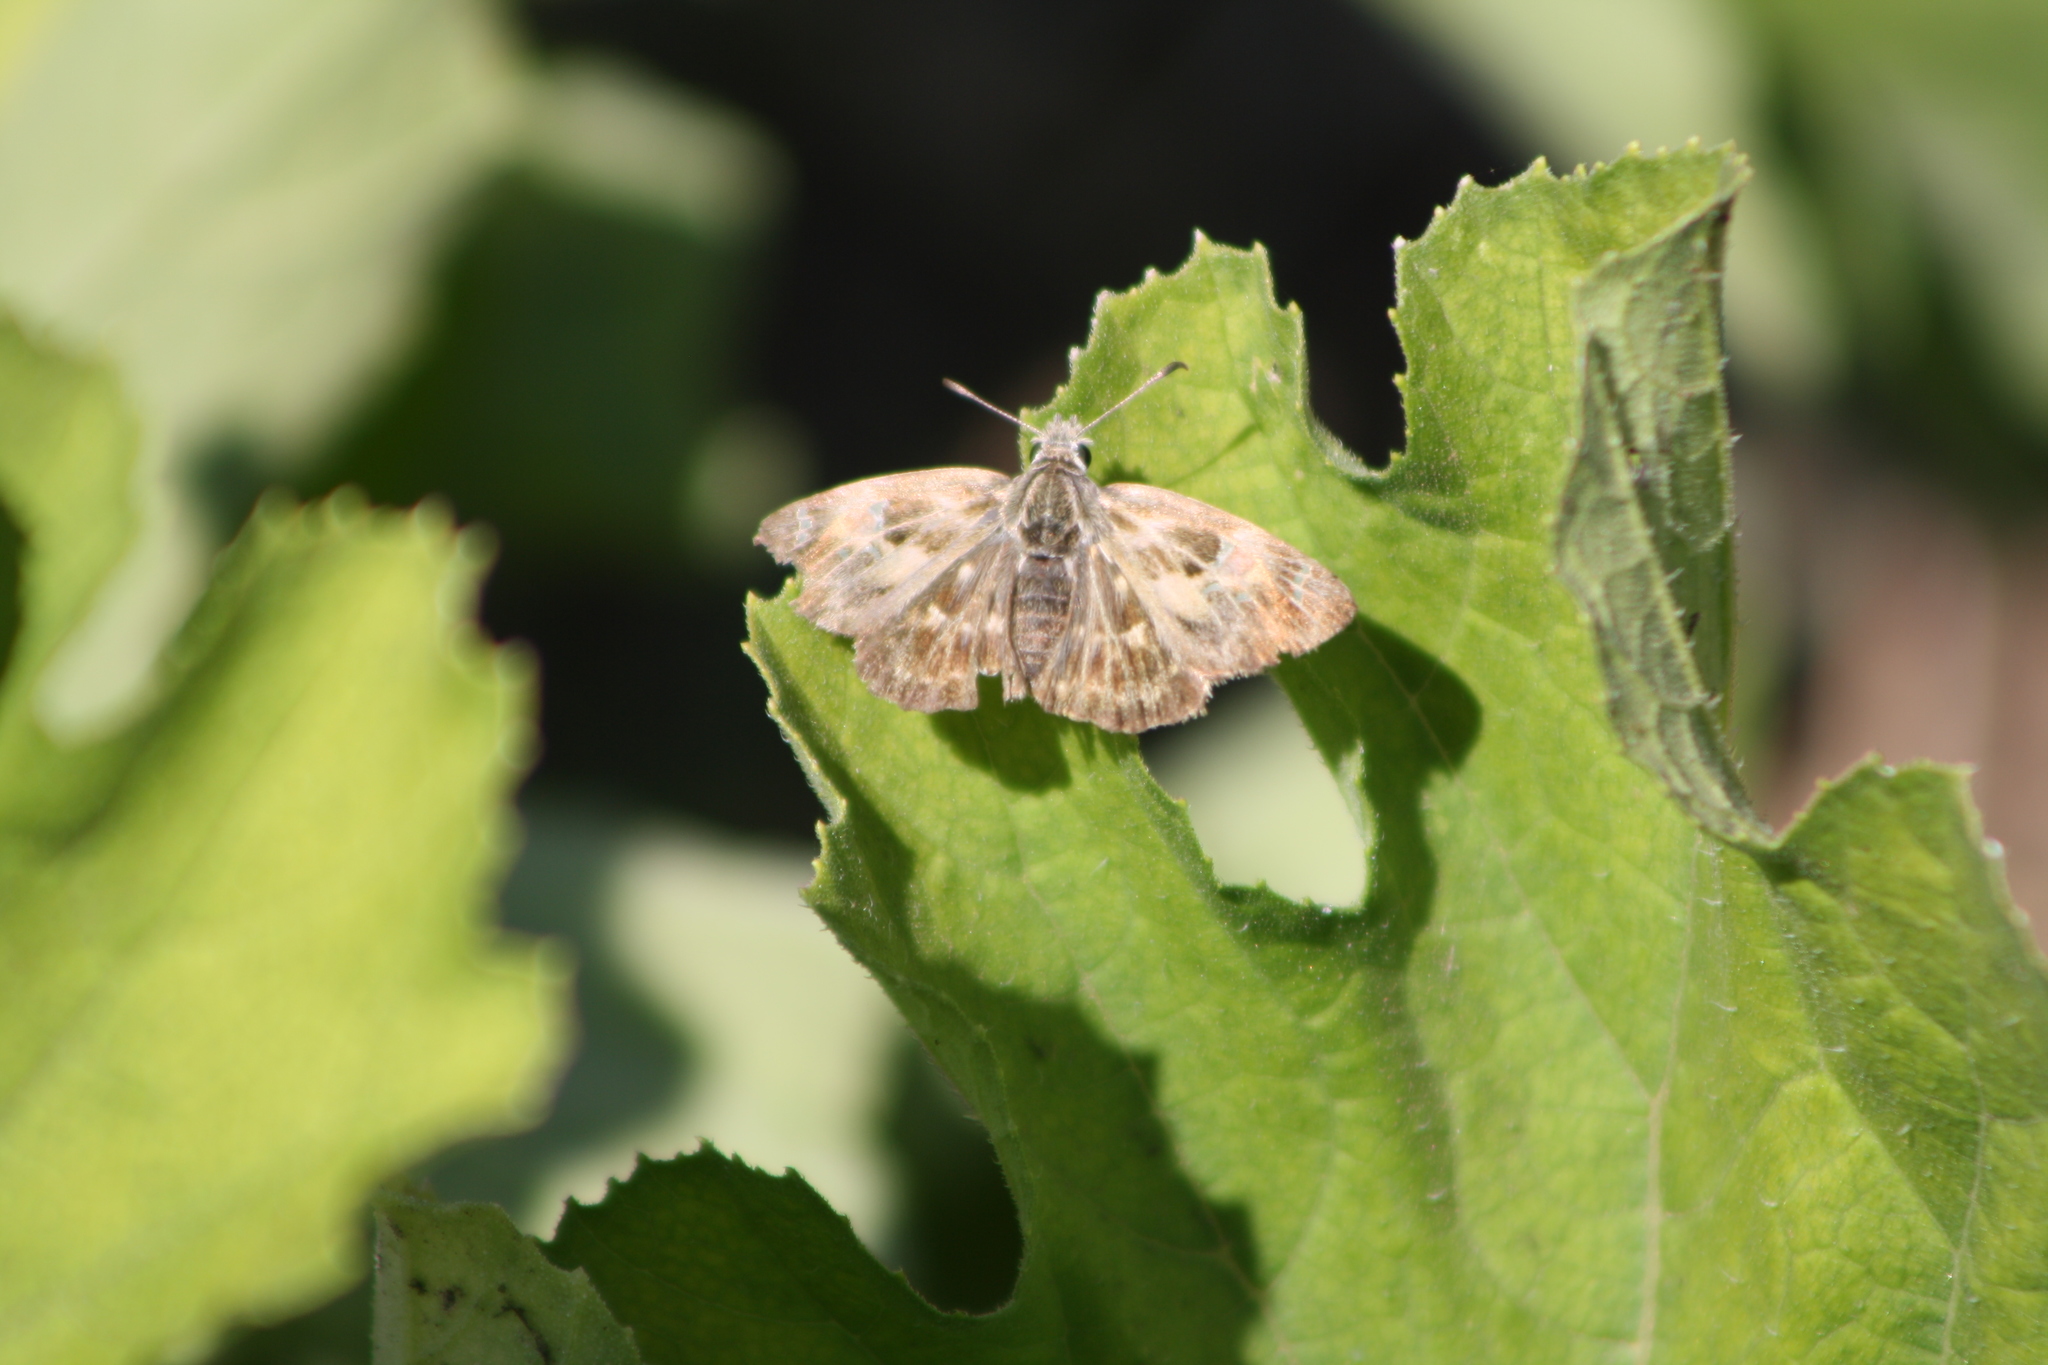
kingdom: Animalia
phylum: Arthropoda
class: Insecta
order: Lepidoptera
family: Hesperiidae
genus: Carcharodus
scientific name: Carcharodus alceae
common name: Mallow skipper
